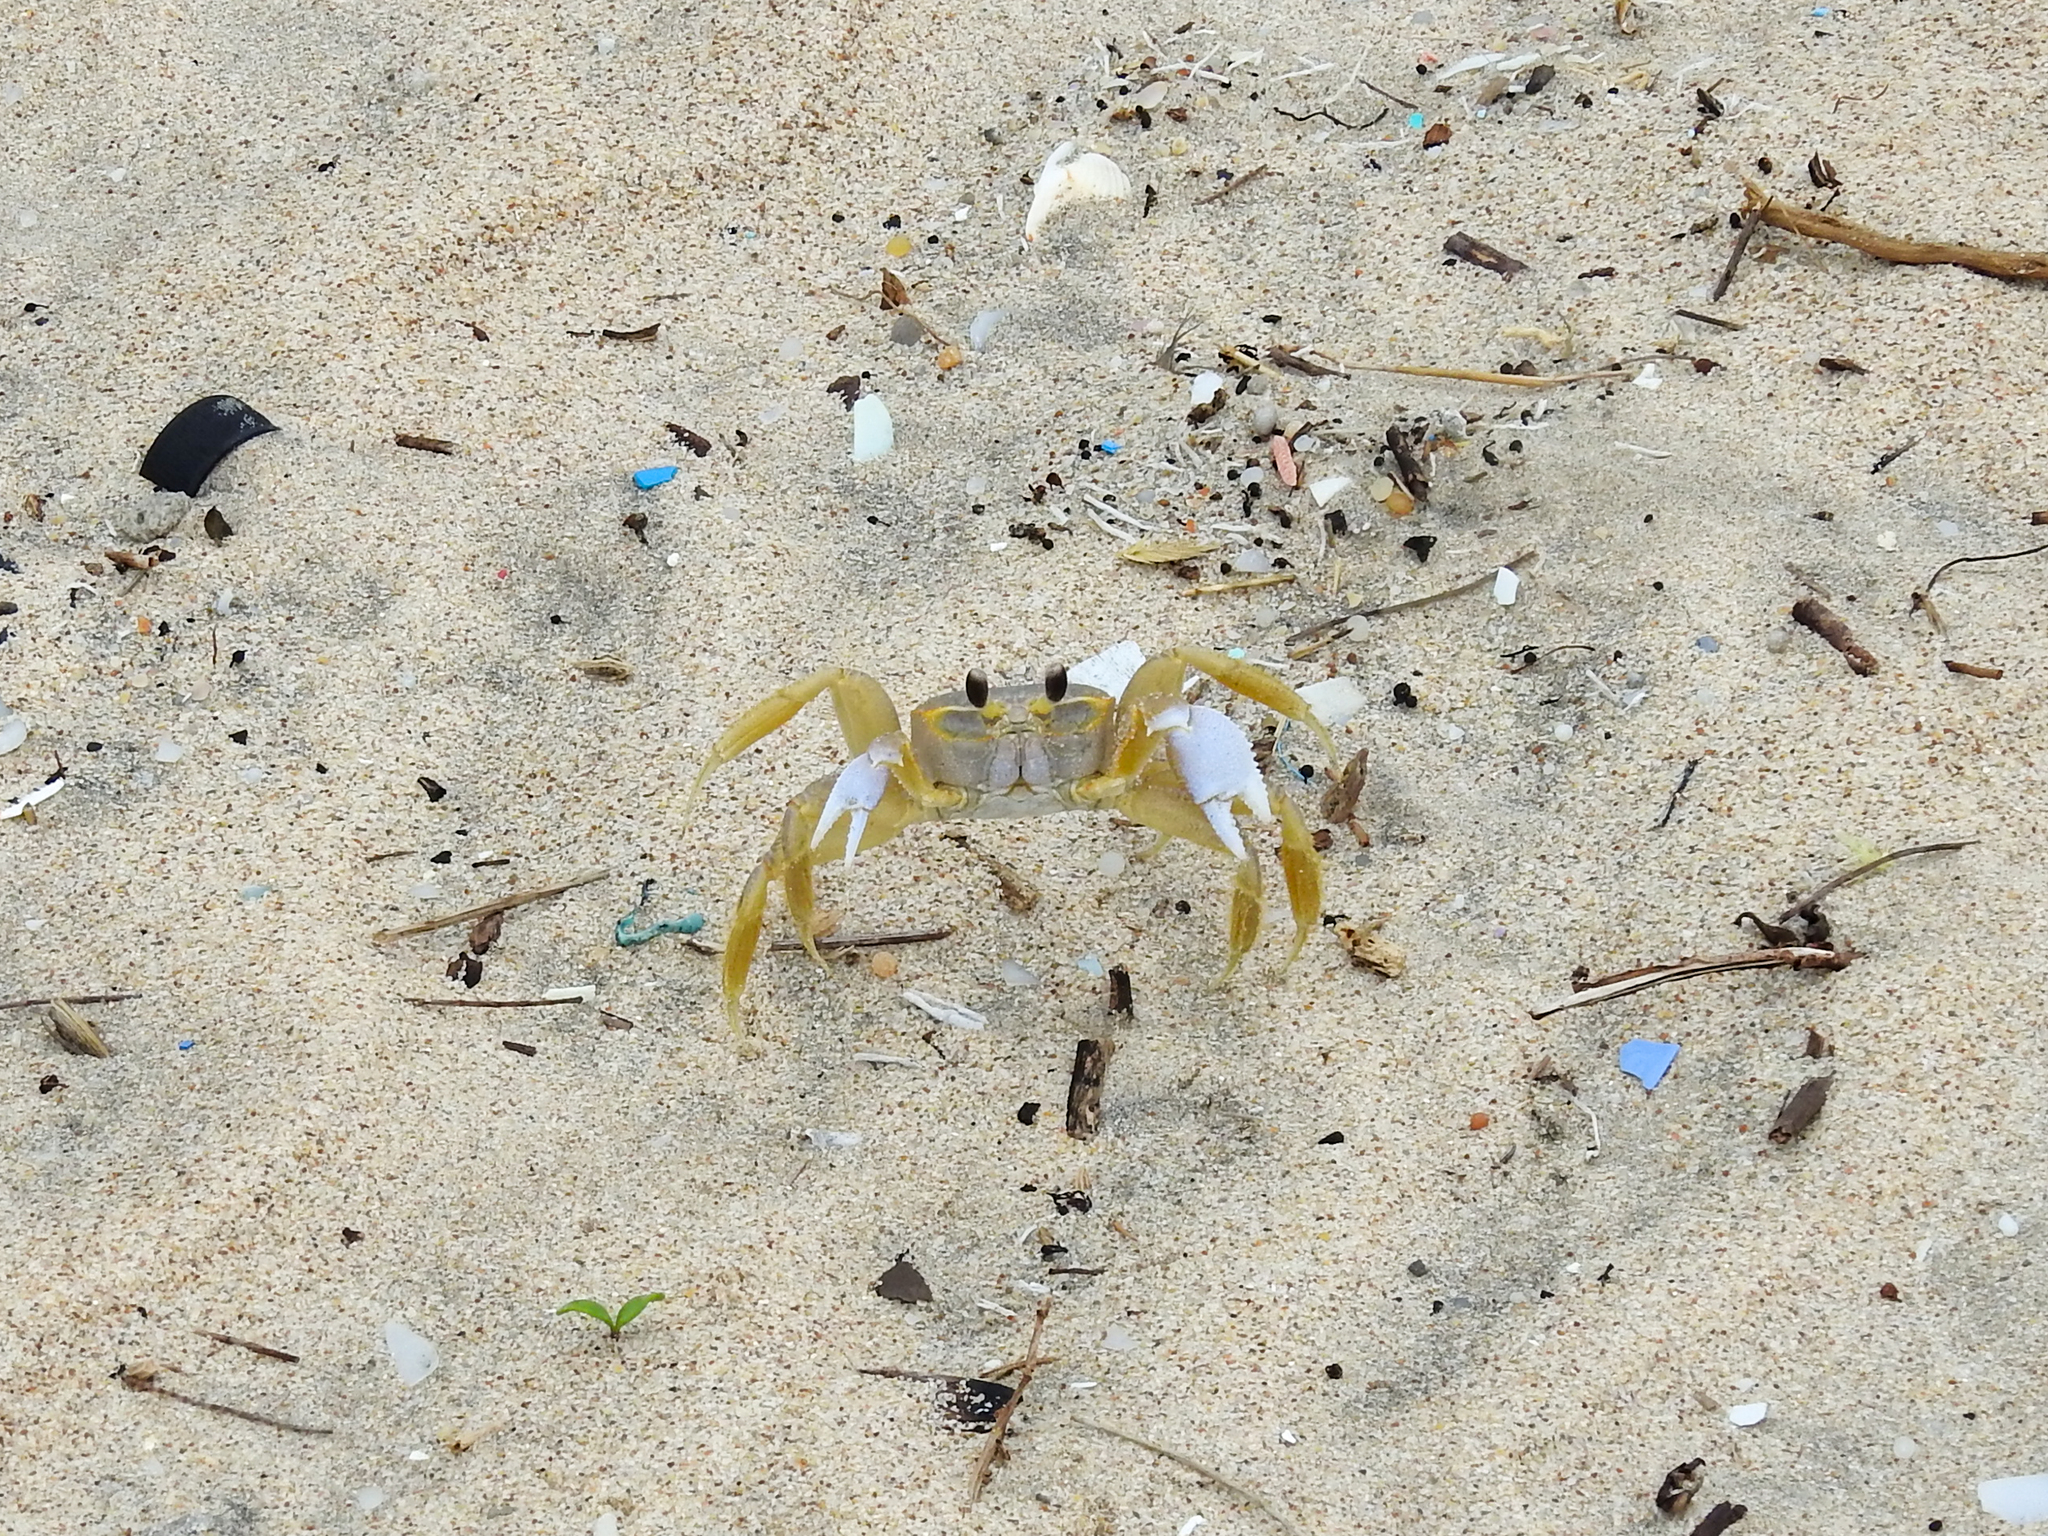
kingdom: Animalia
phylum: Arthropoda
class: Malacostraca
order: Decapoda
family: Ocypodidae
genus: Ocypode
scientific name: Ocypode quadrata
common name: Ghost crab
